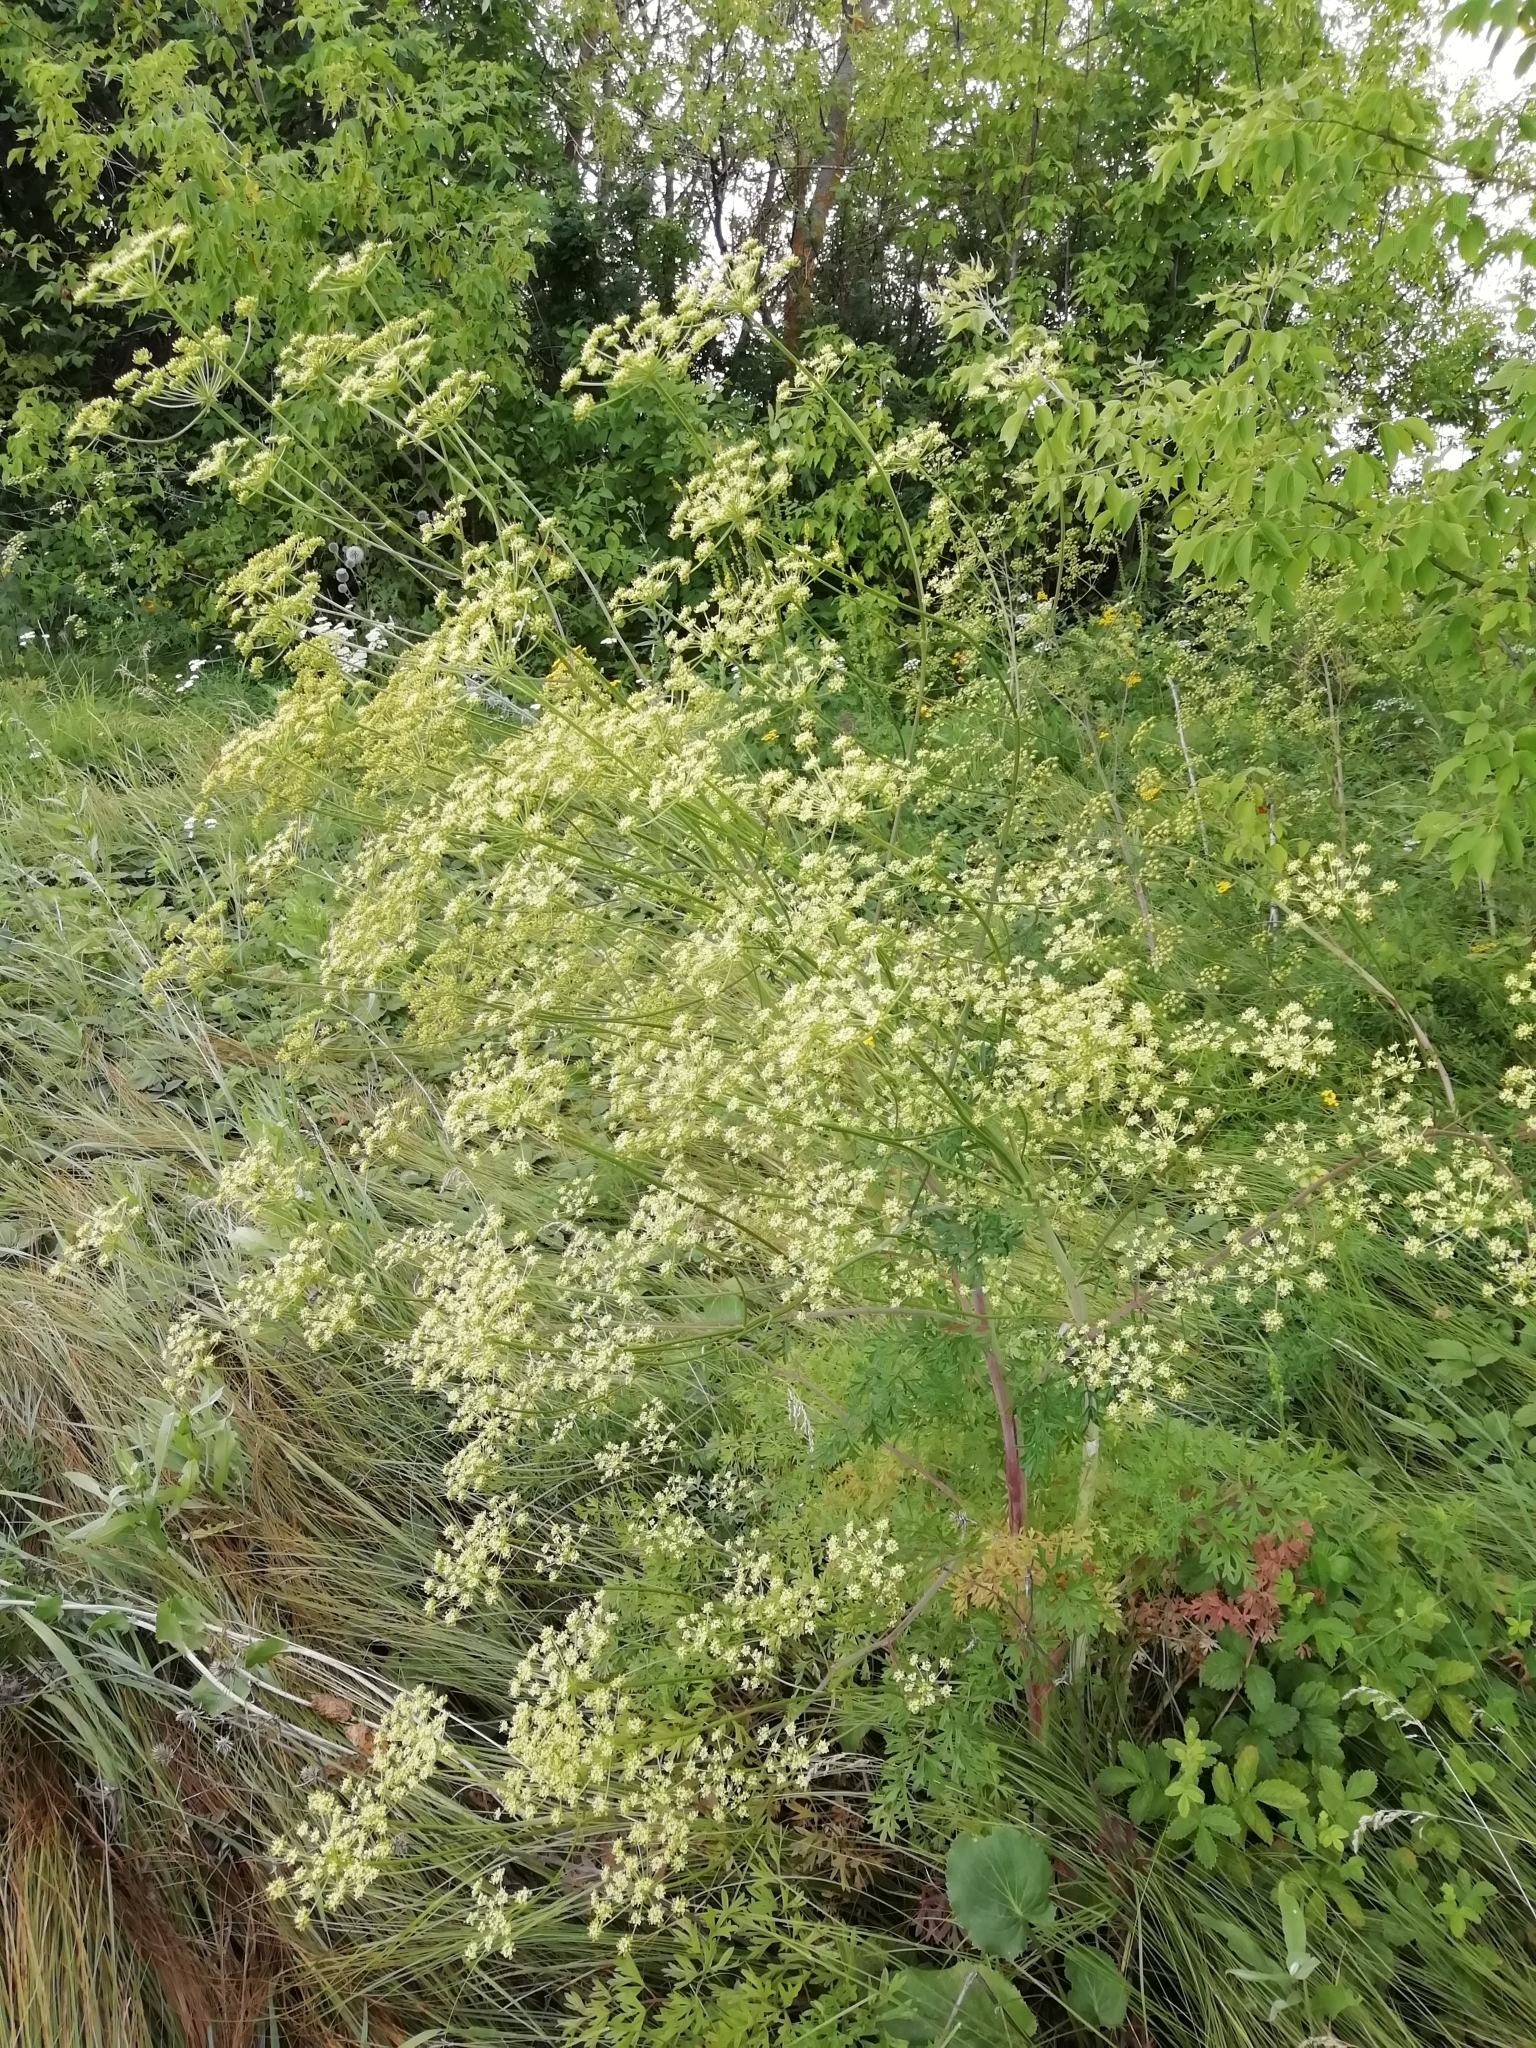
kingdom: Plantae
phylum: Tracheophyta
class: Magnoliopsida
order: Apiales
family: Apiaceae
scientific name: Apiaceae
